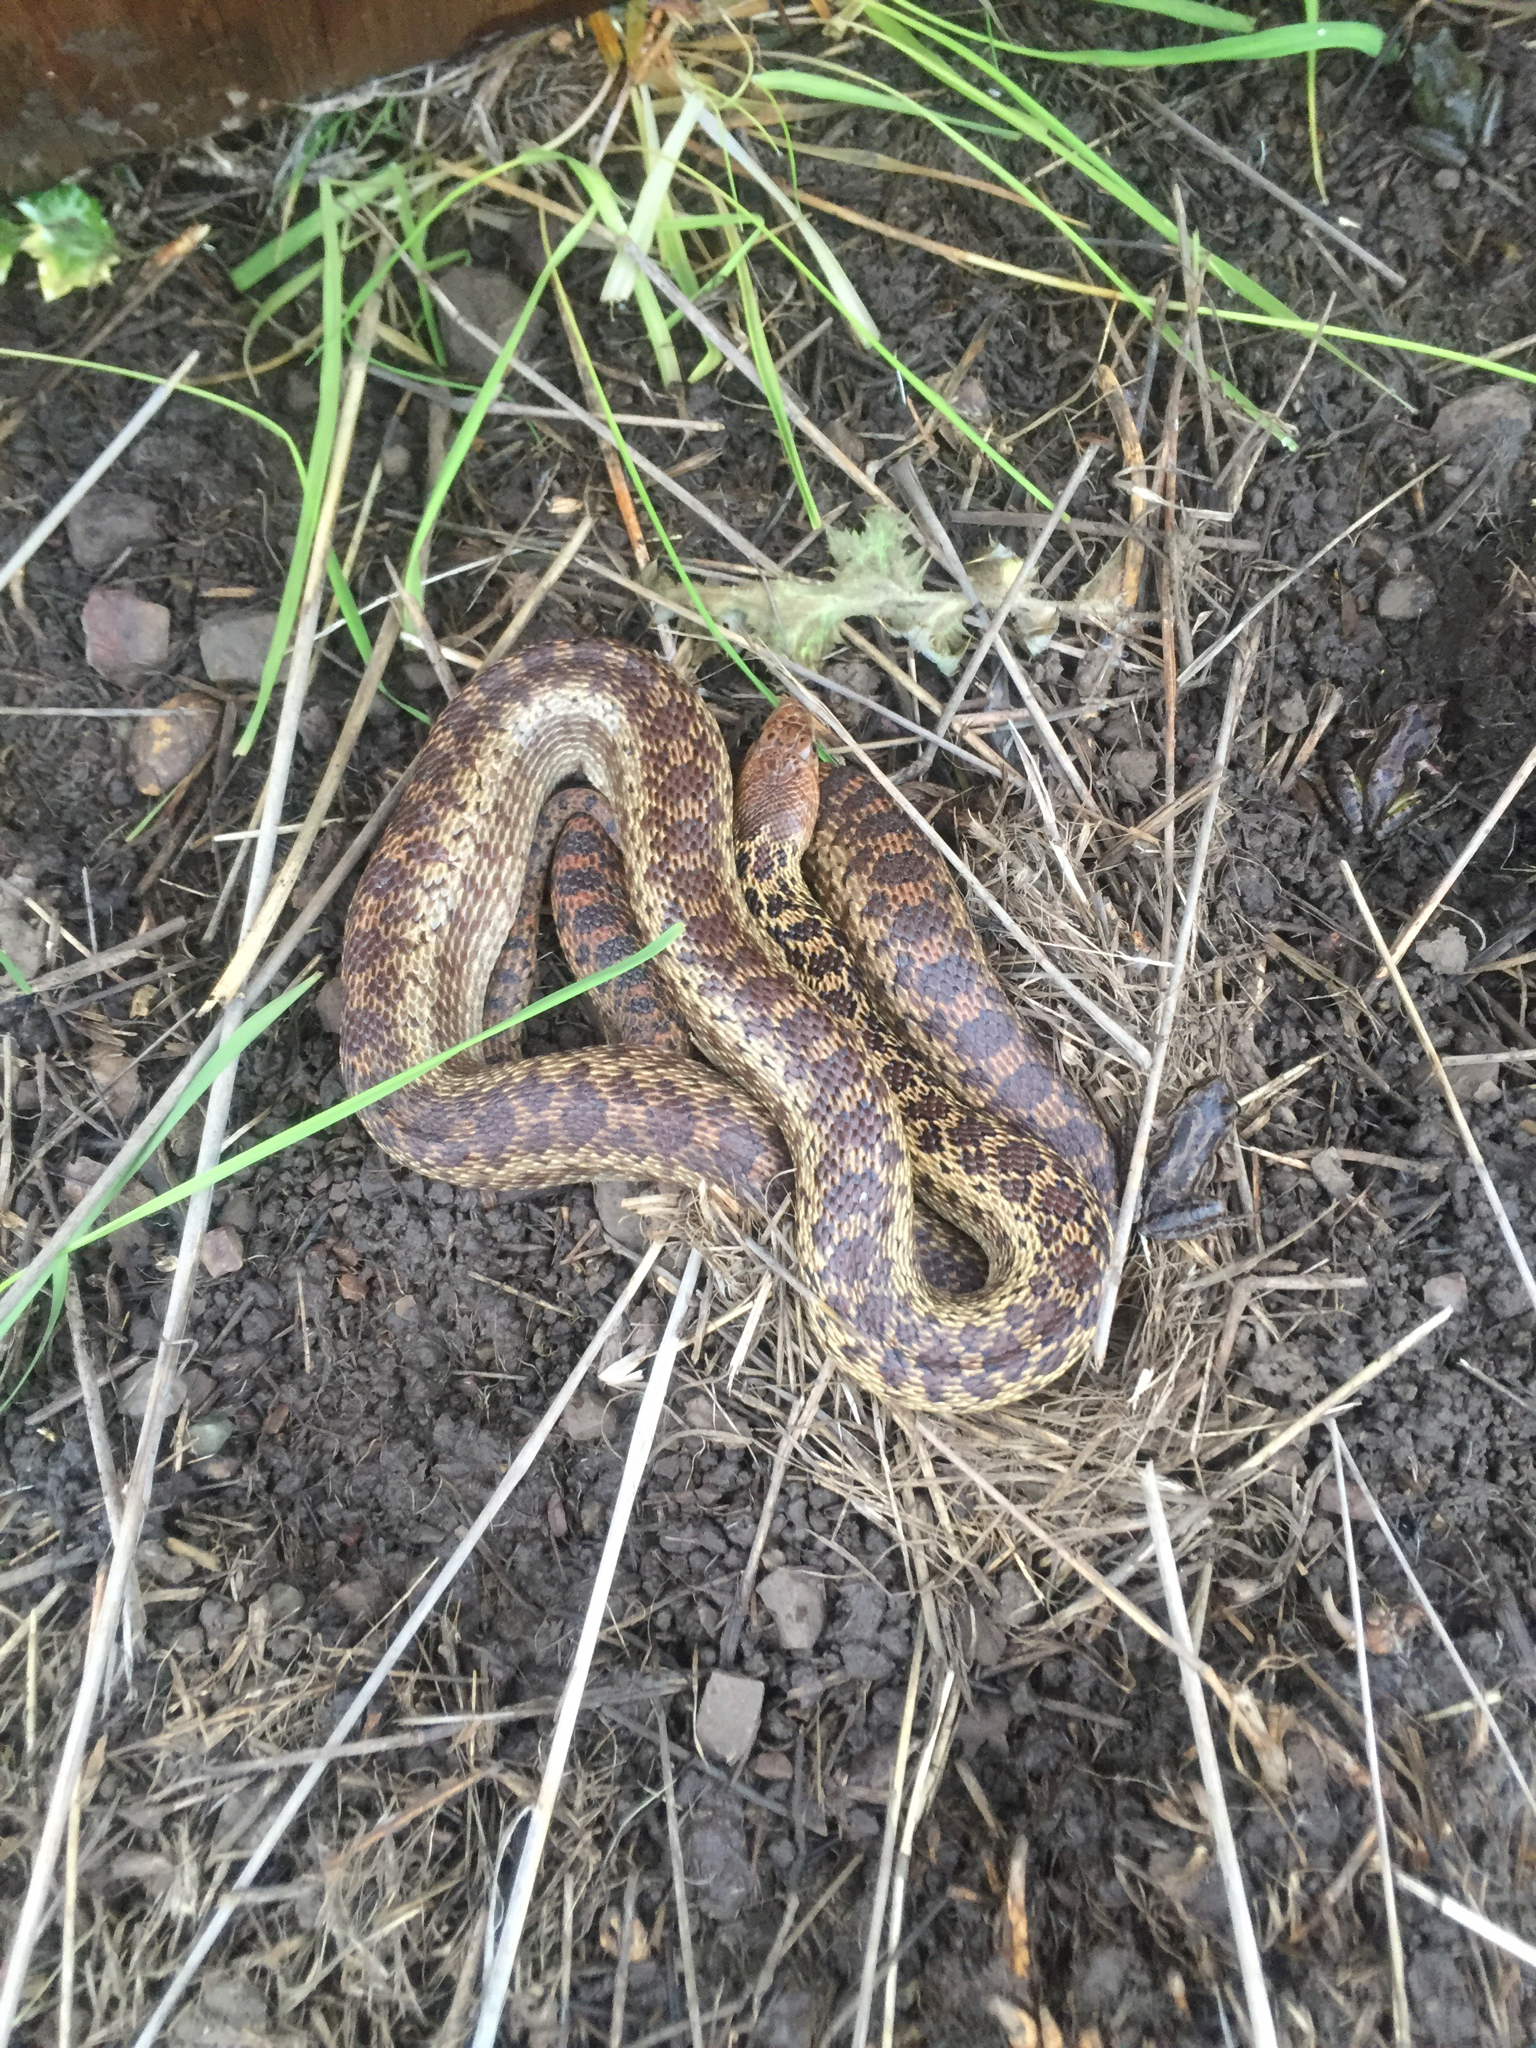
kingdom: Animalia
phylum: Chordata
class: Squamata
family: Colubridae
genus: Pituophis
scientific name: Pituophis catenifer
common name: Gopher snake
